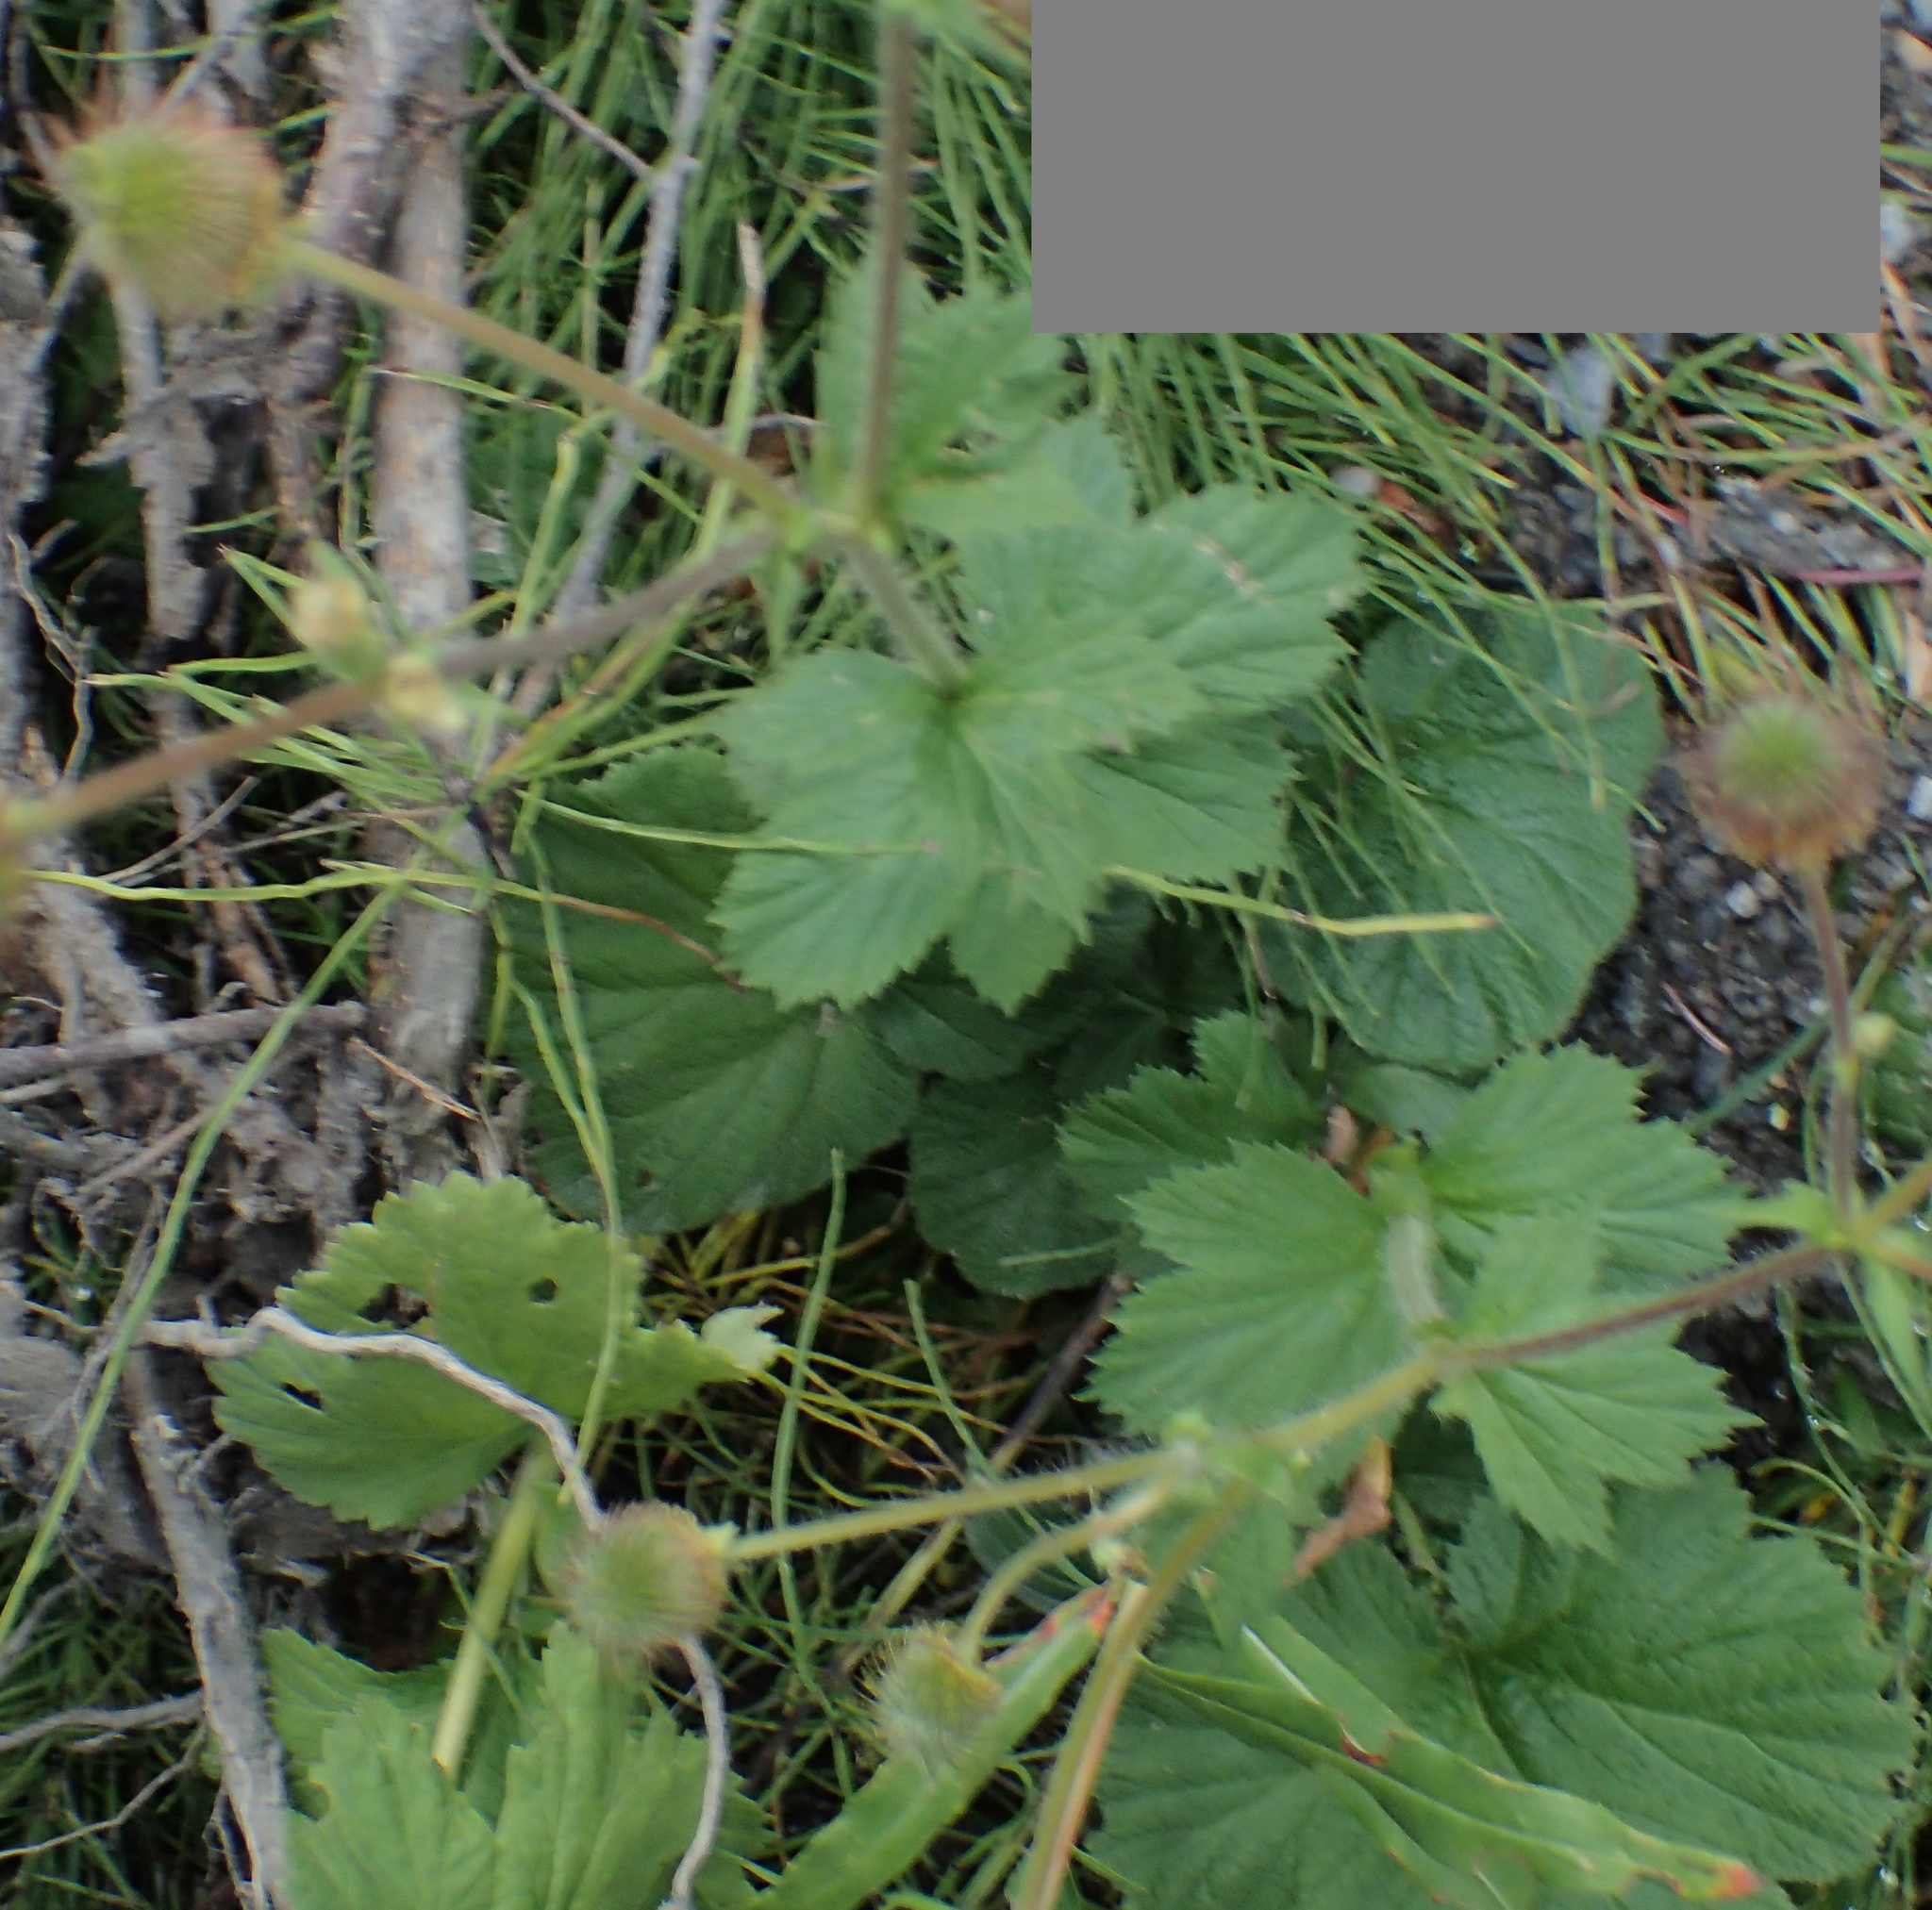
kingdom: Plantae
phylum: Tracheophyta
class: Magnoliopsida
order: Rosales
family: Rosaceae
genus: Geum
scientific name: Geum macrophyllum
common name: Large-leaved avens
